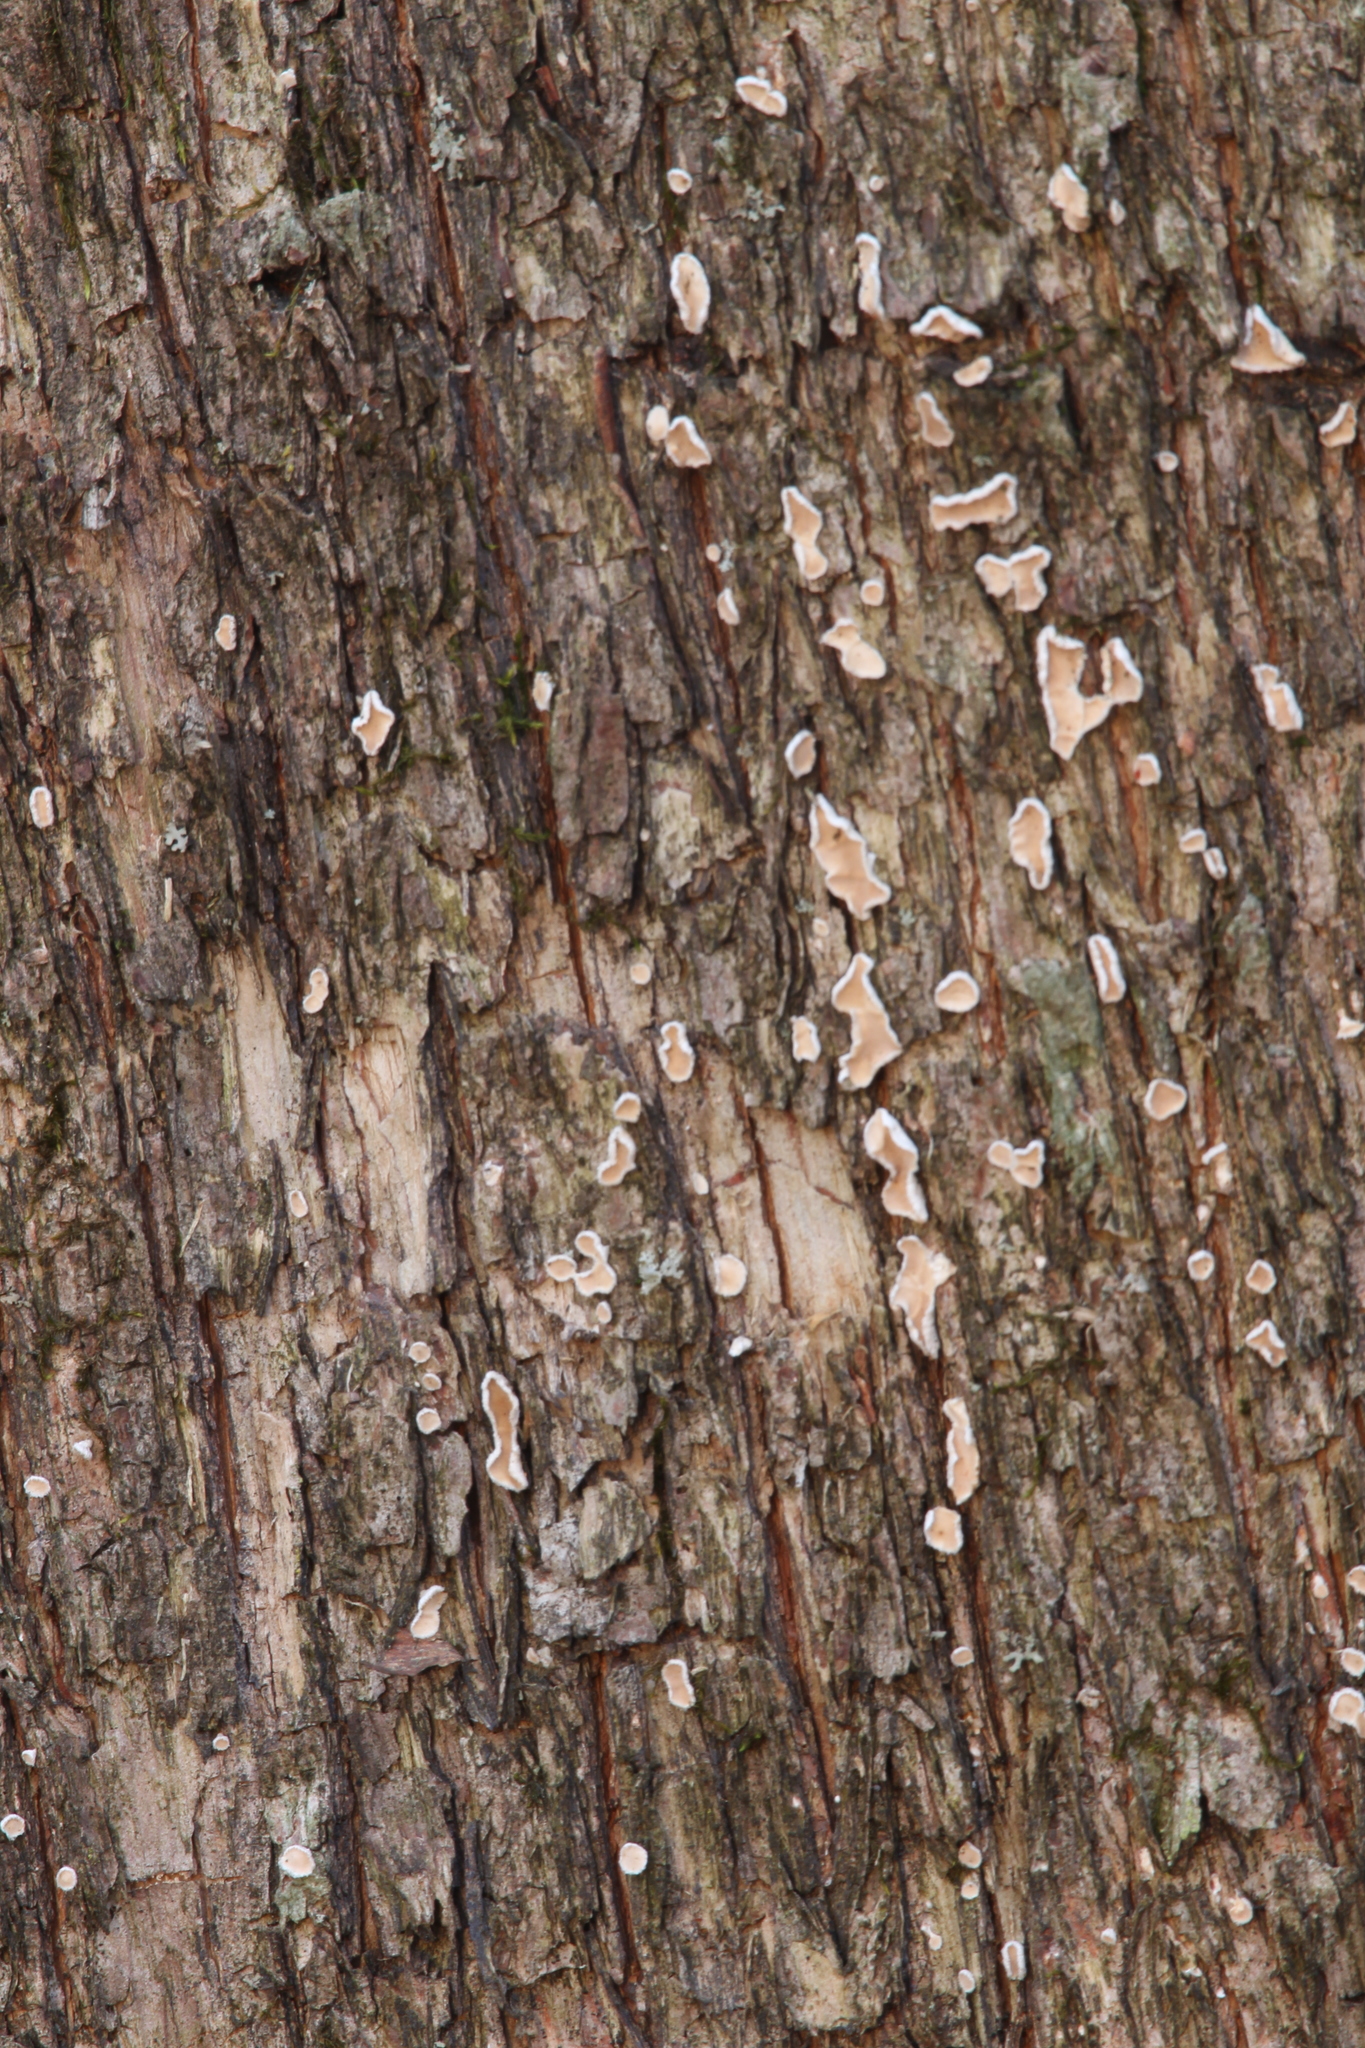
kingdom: Fungi
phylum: Basidiomycota
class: Agaricomycetes
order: Russulales
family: Stereaceae
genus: Acanthophysium
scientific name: Acanthophysium oakesii
